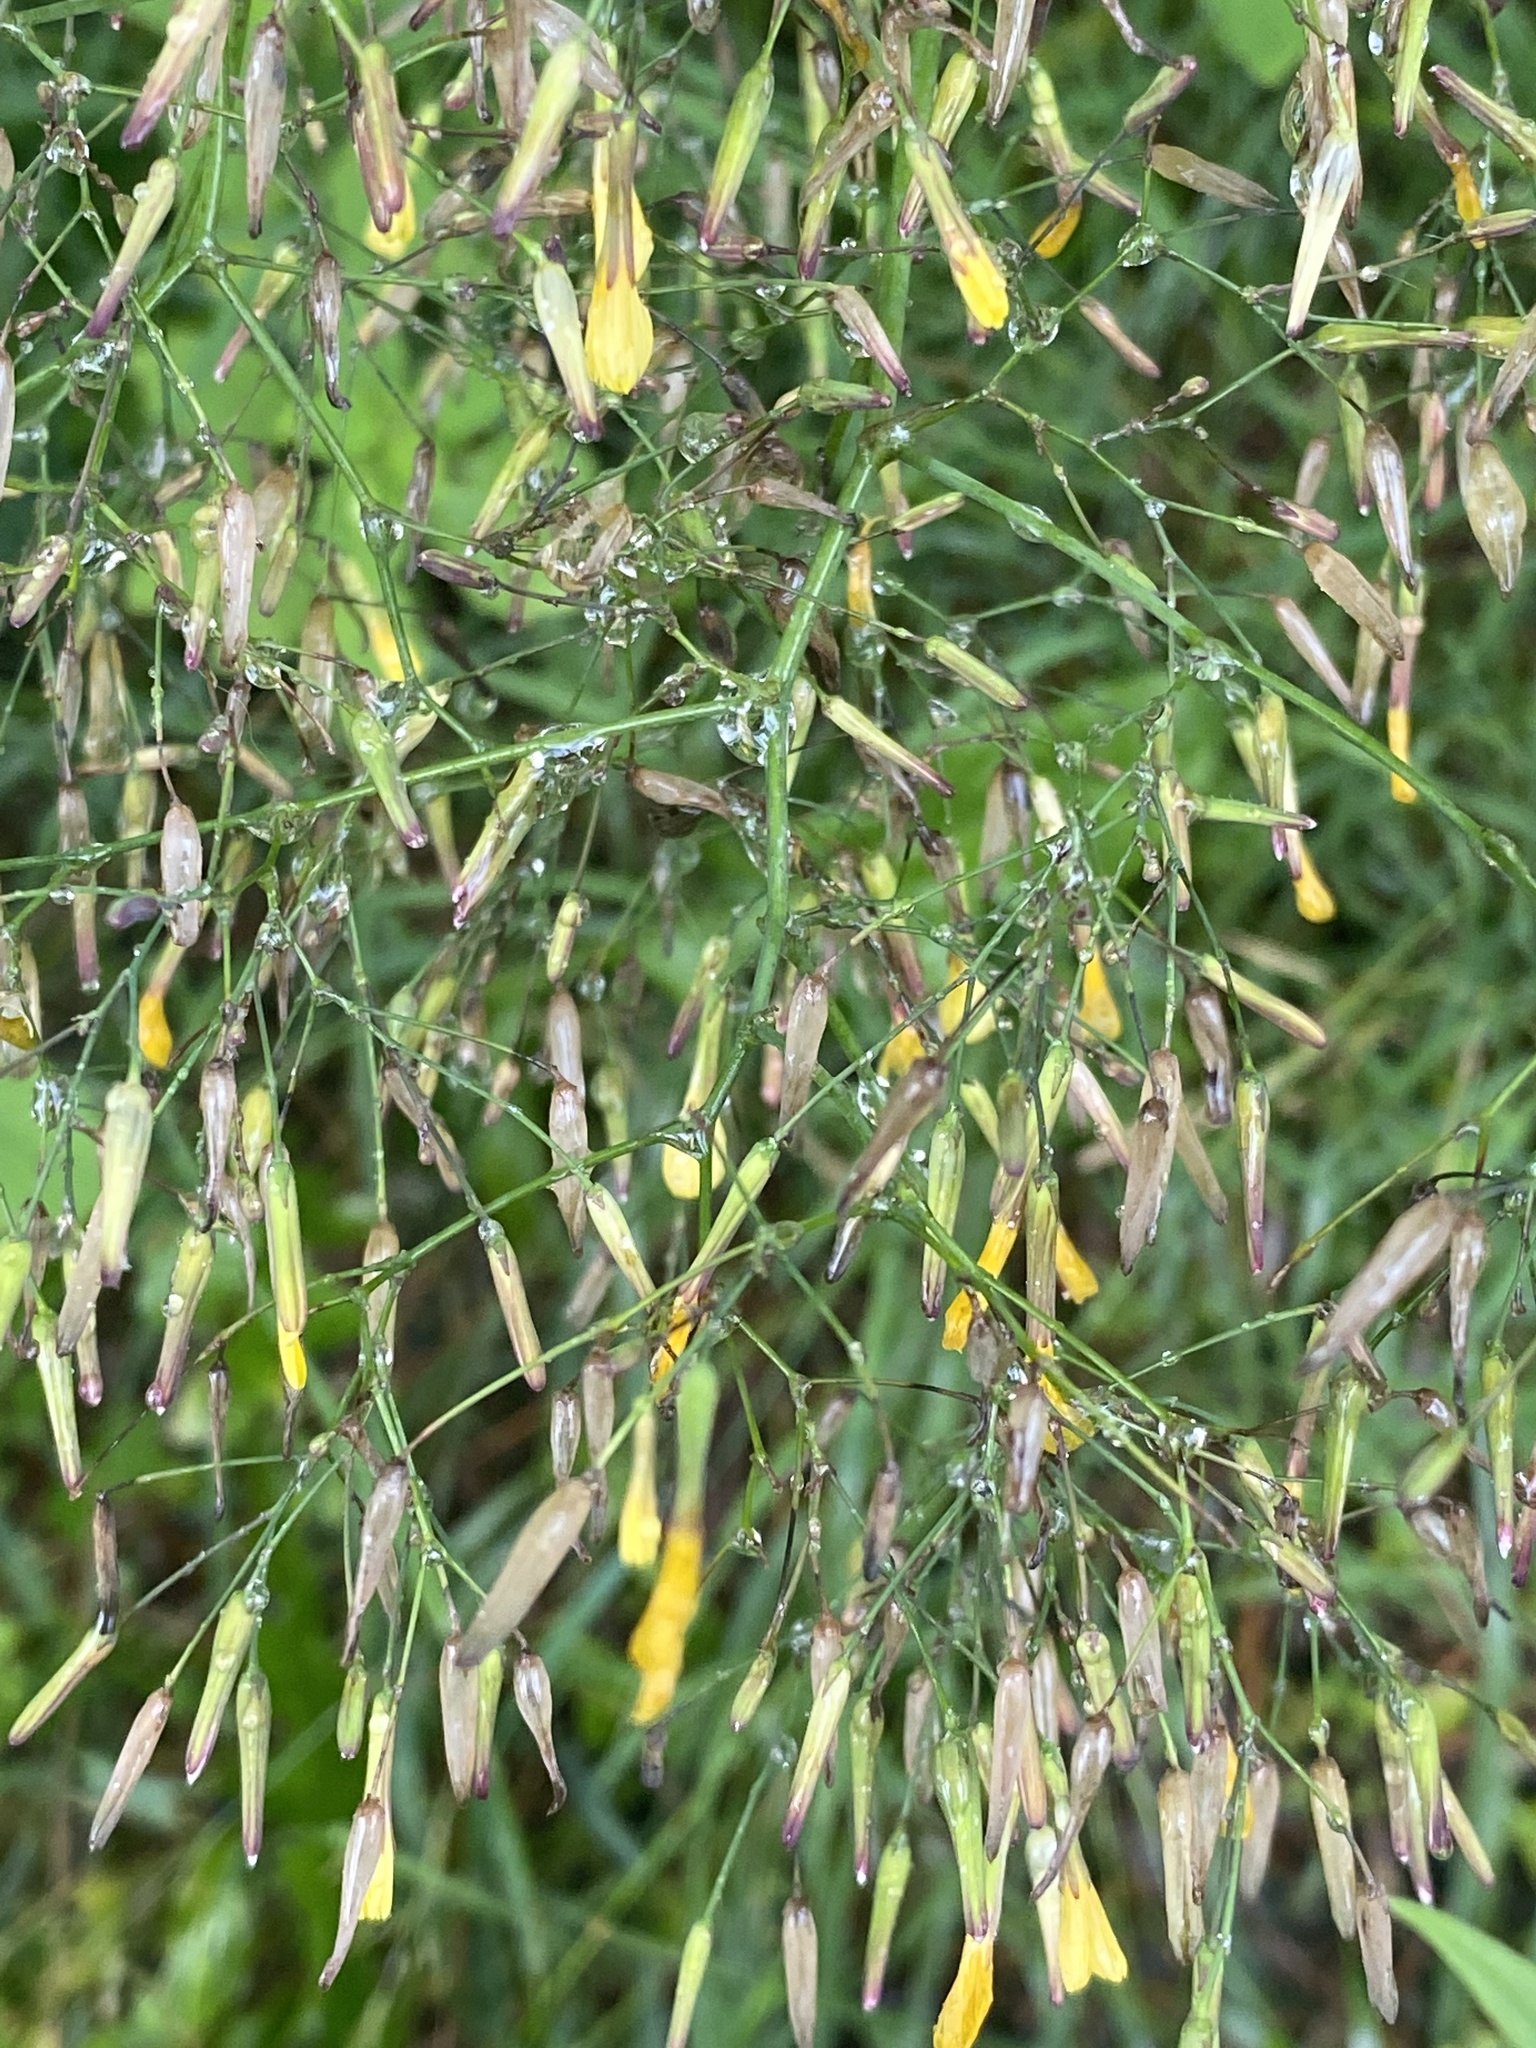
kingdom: Plantae
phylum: Tracheophyta
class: Magnoliopsida
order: Asterales
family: Asteraceae
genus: Mycelis
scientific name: Mycelis muralis
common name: Wall lettuce
